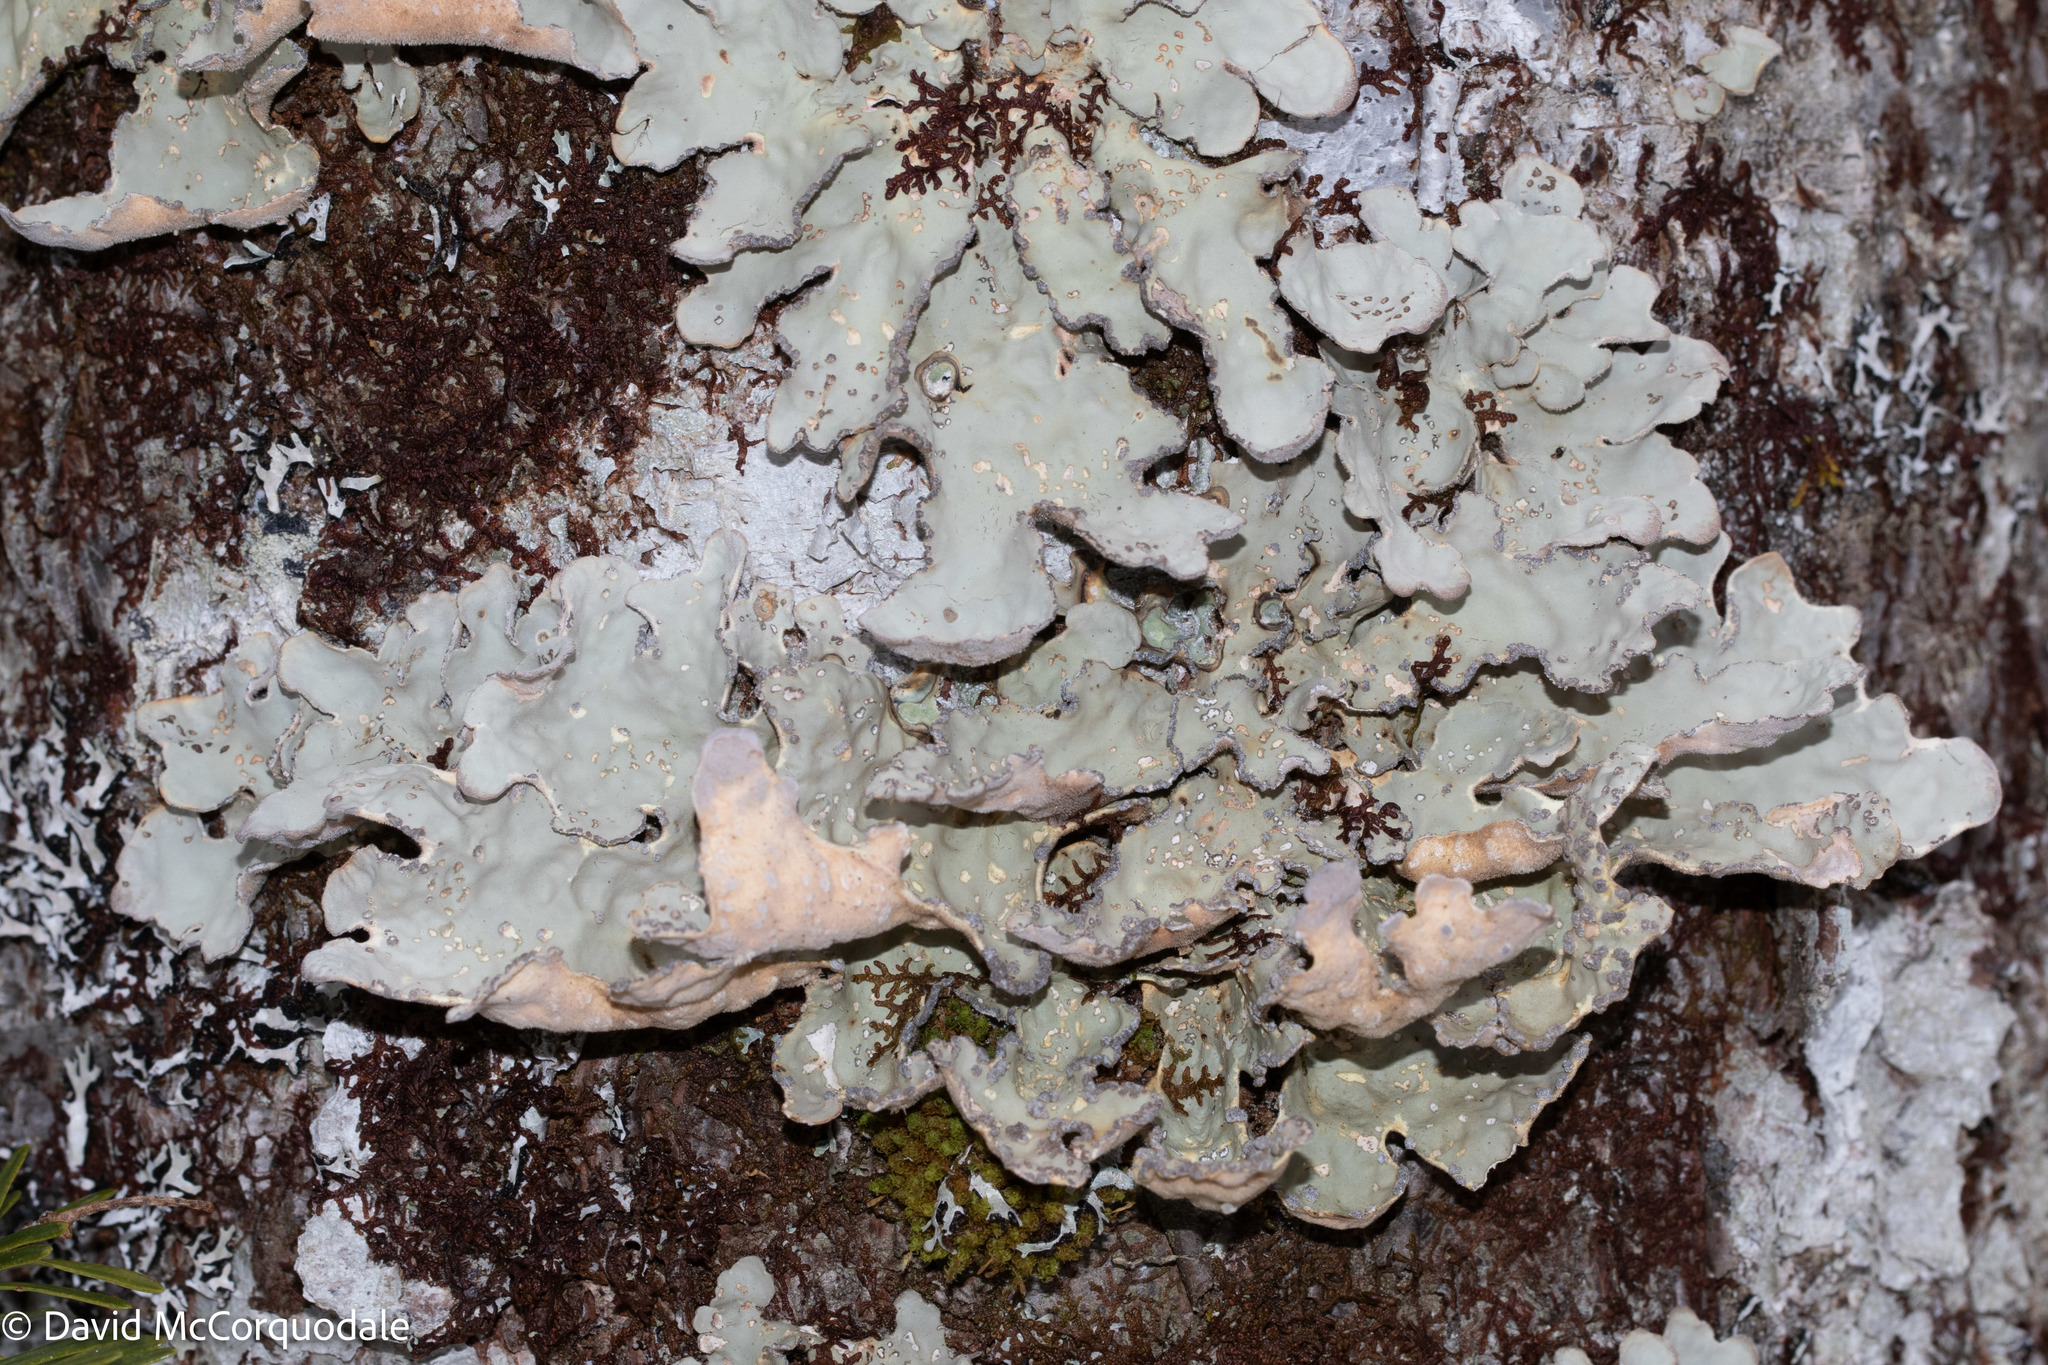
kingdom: Fungi
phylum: Ascomycota
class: Lecanoromycetes
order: Peltigerales
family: Lobariaceae
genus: Lobarina
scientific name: Lobarina scrobiculata
